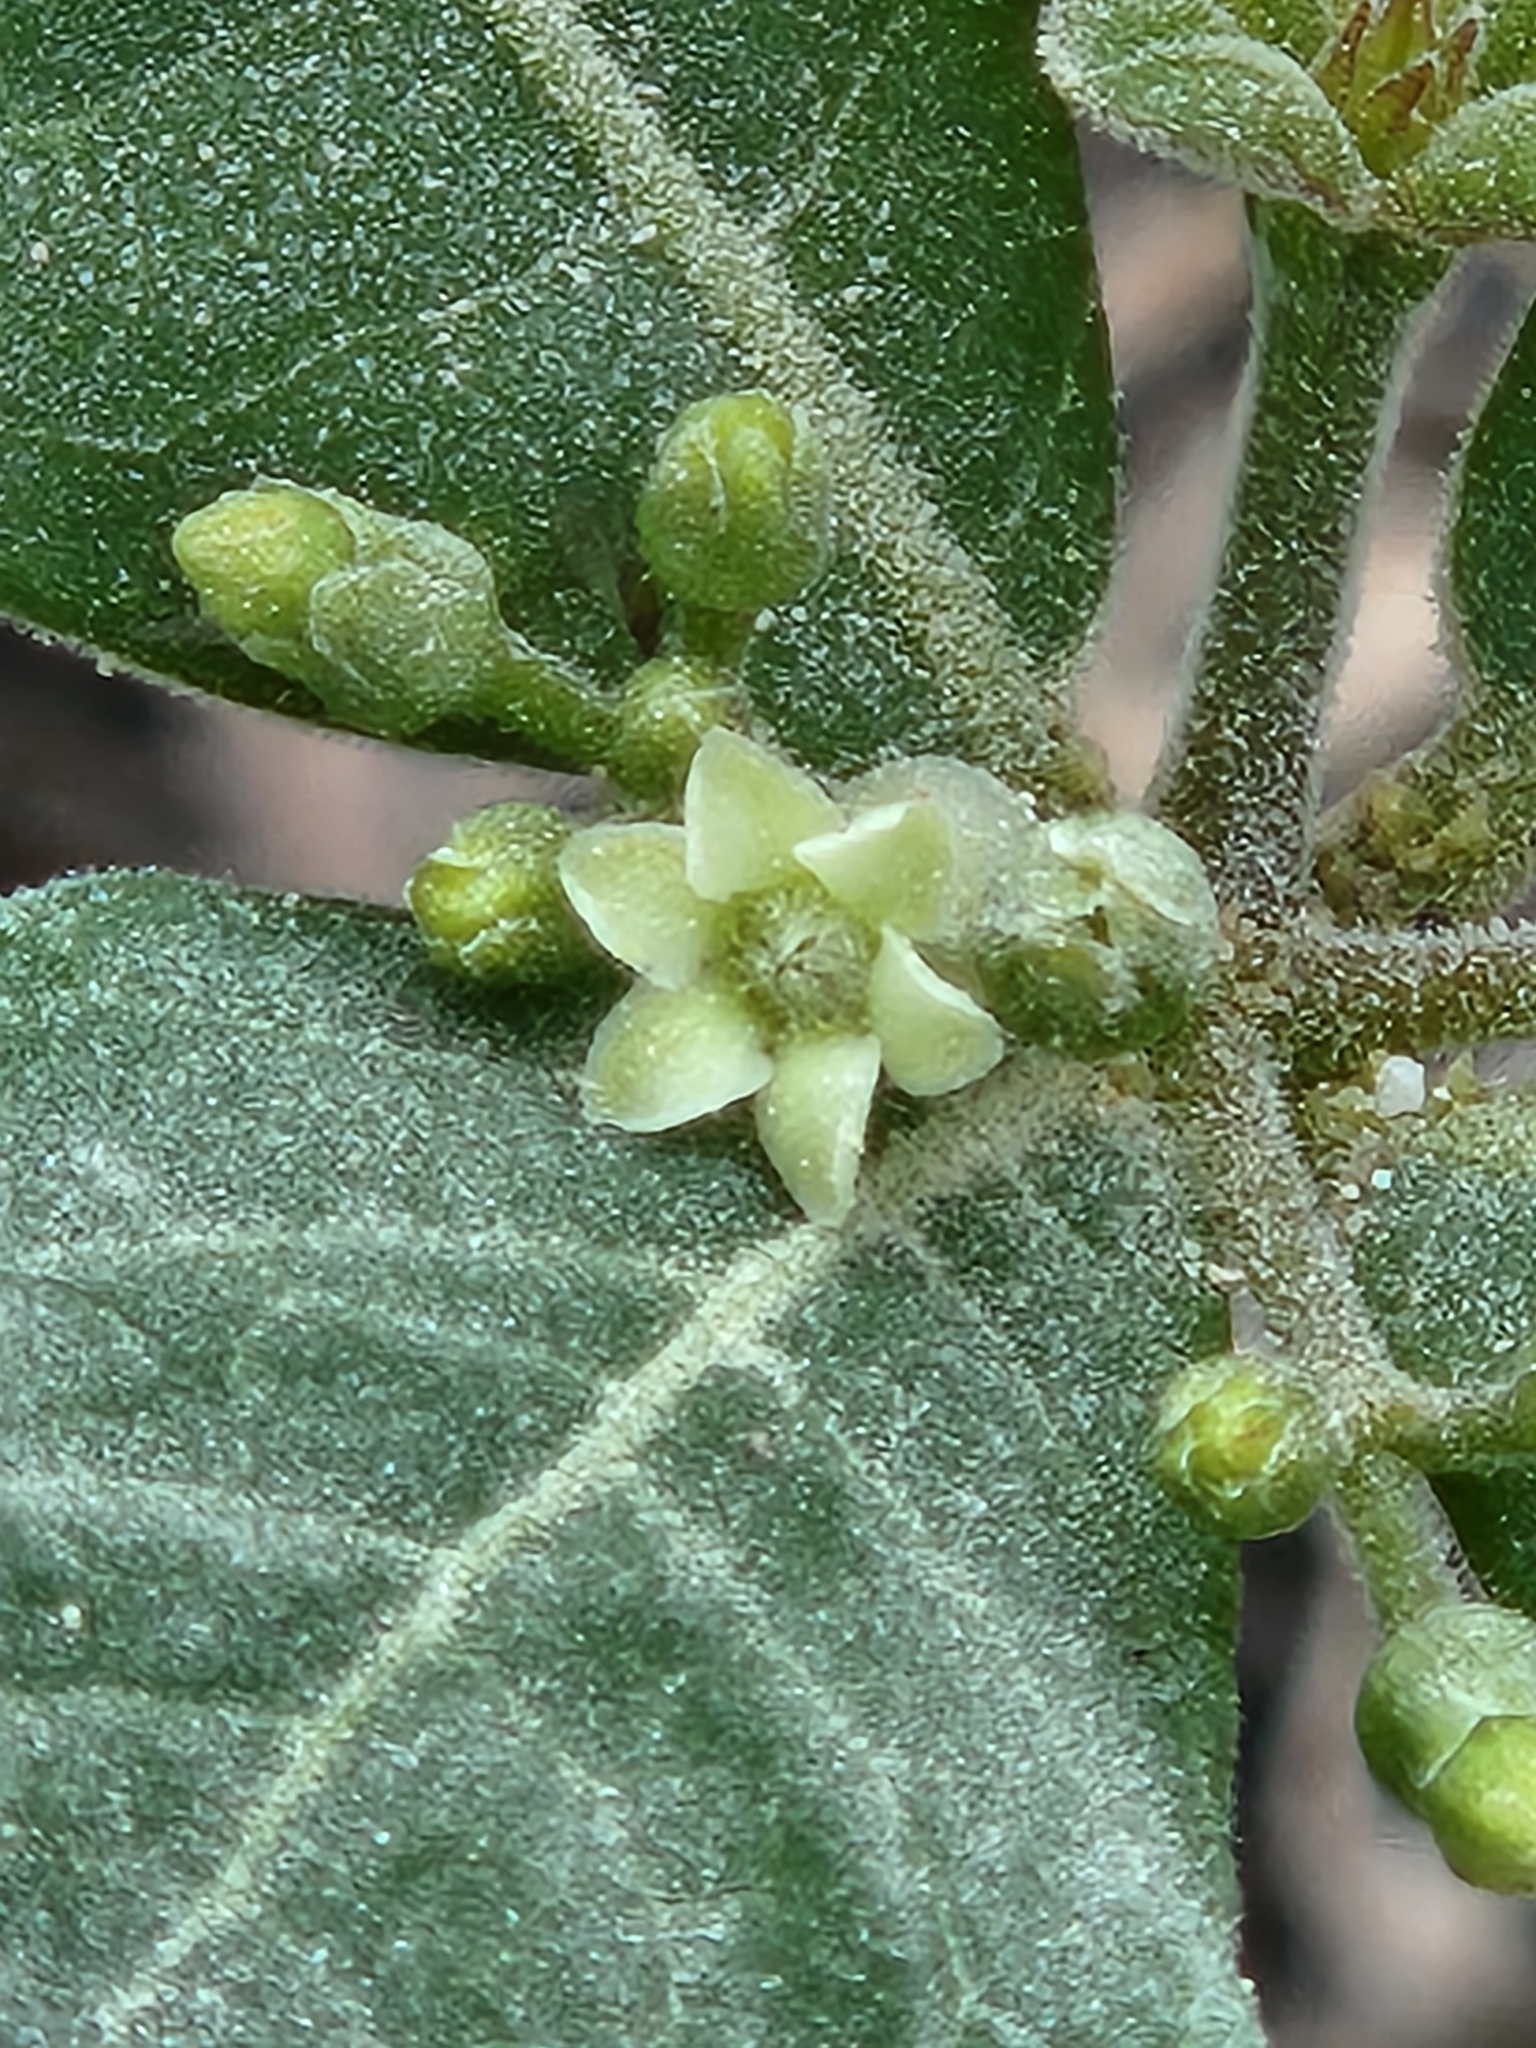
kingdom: Plantae
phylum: Tracheophyta
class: Magnoliopsida
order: Gentianales
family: Apocynaceae
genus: Rauvolfia
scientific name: Rauvolfia tetraphylla
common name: Four-leaf devil-pepper
